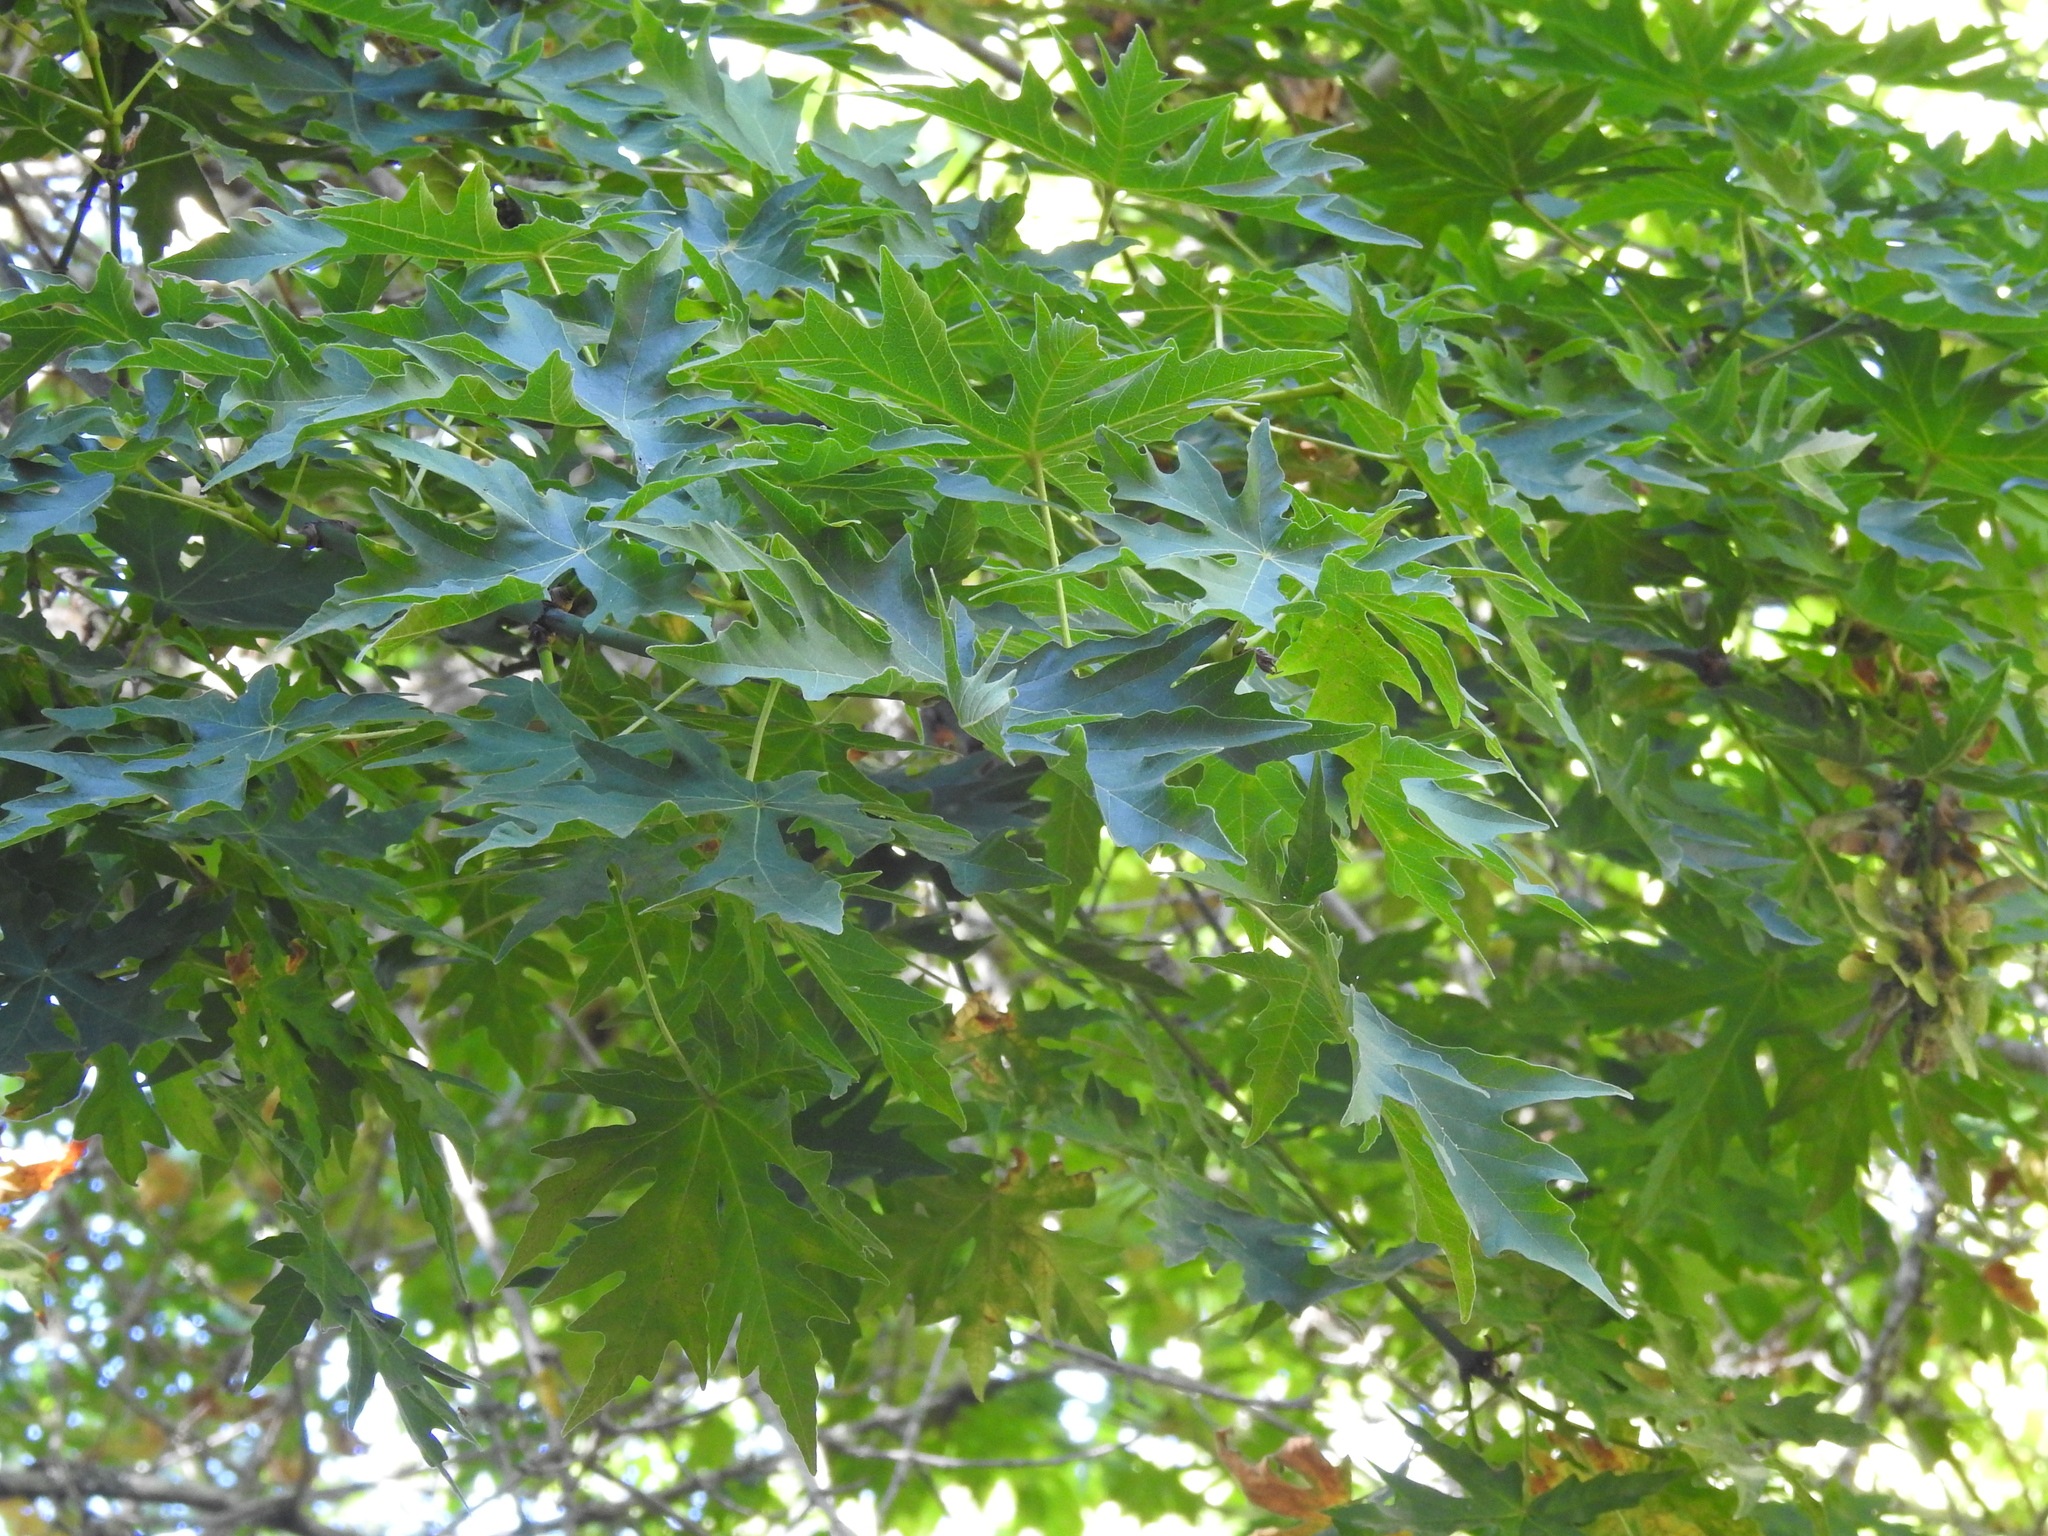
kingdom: Plantae
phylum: Tracheophyta
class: Magnoliopsida
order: Sapindales
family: Sapindaceae
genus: Acer
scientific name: Acer macrophyllum
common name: Oregon maple
